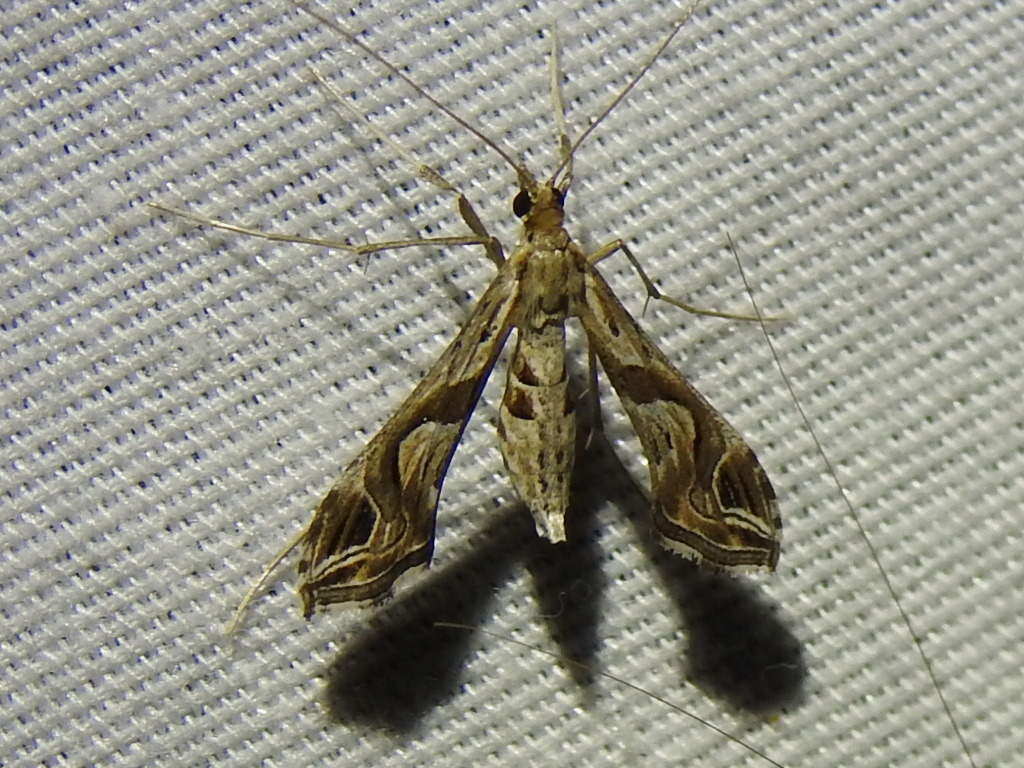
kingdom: Animalia
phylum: Arthropoda
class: Insecta
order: Lepidoptera
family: Crambidae
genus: Lineodes
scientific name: Lineodes integra
